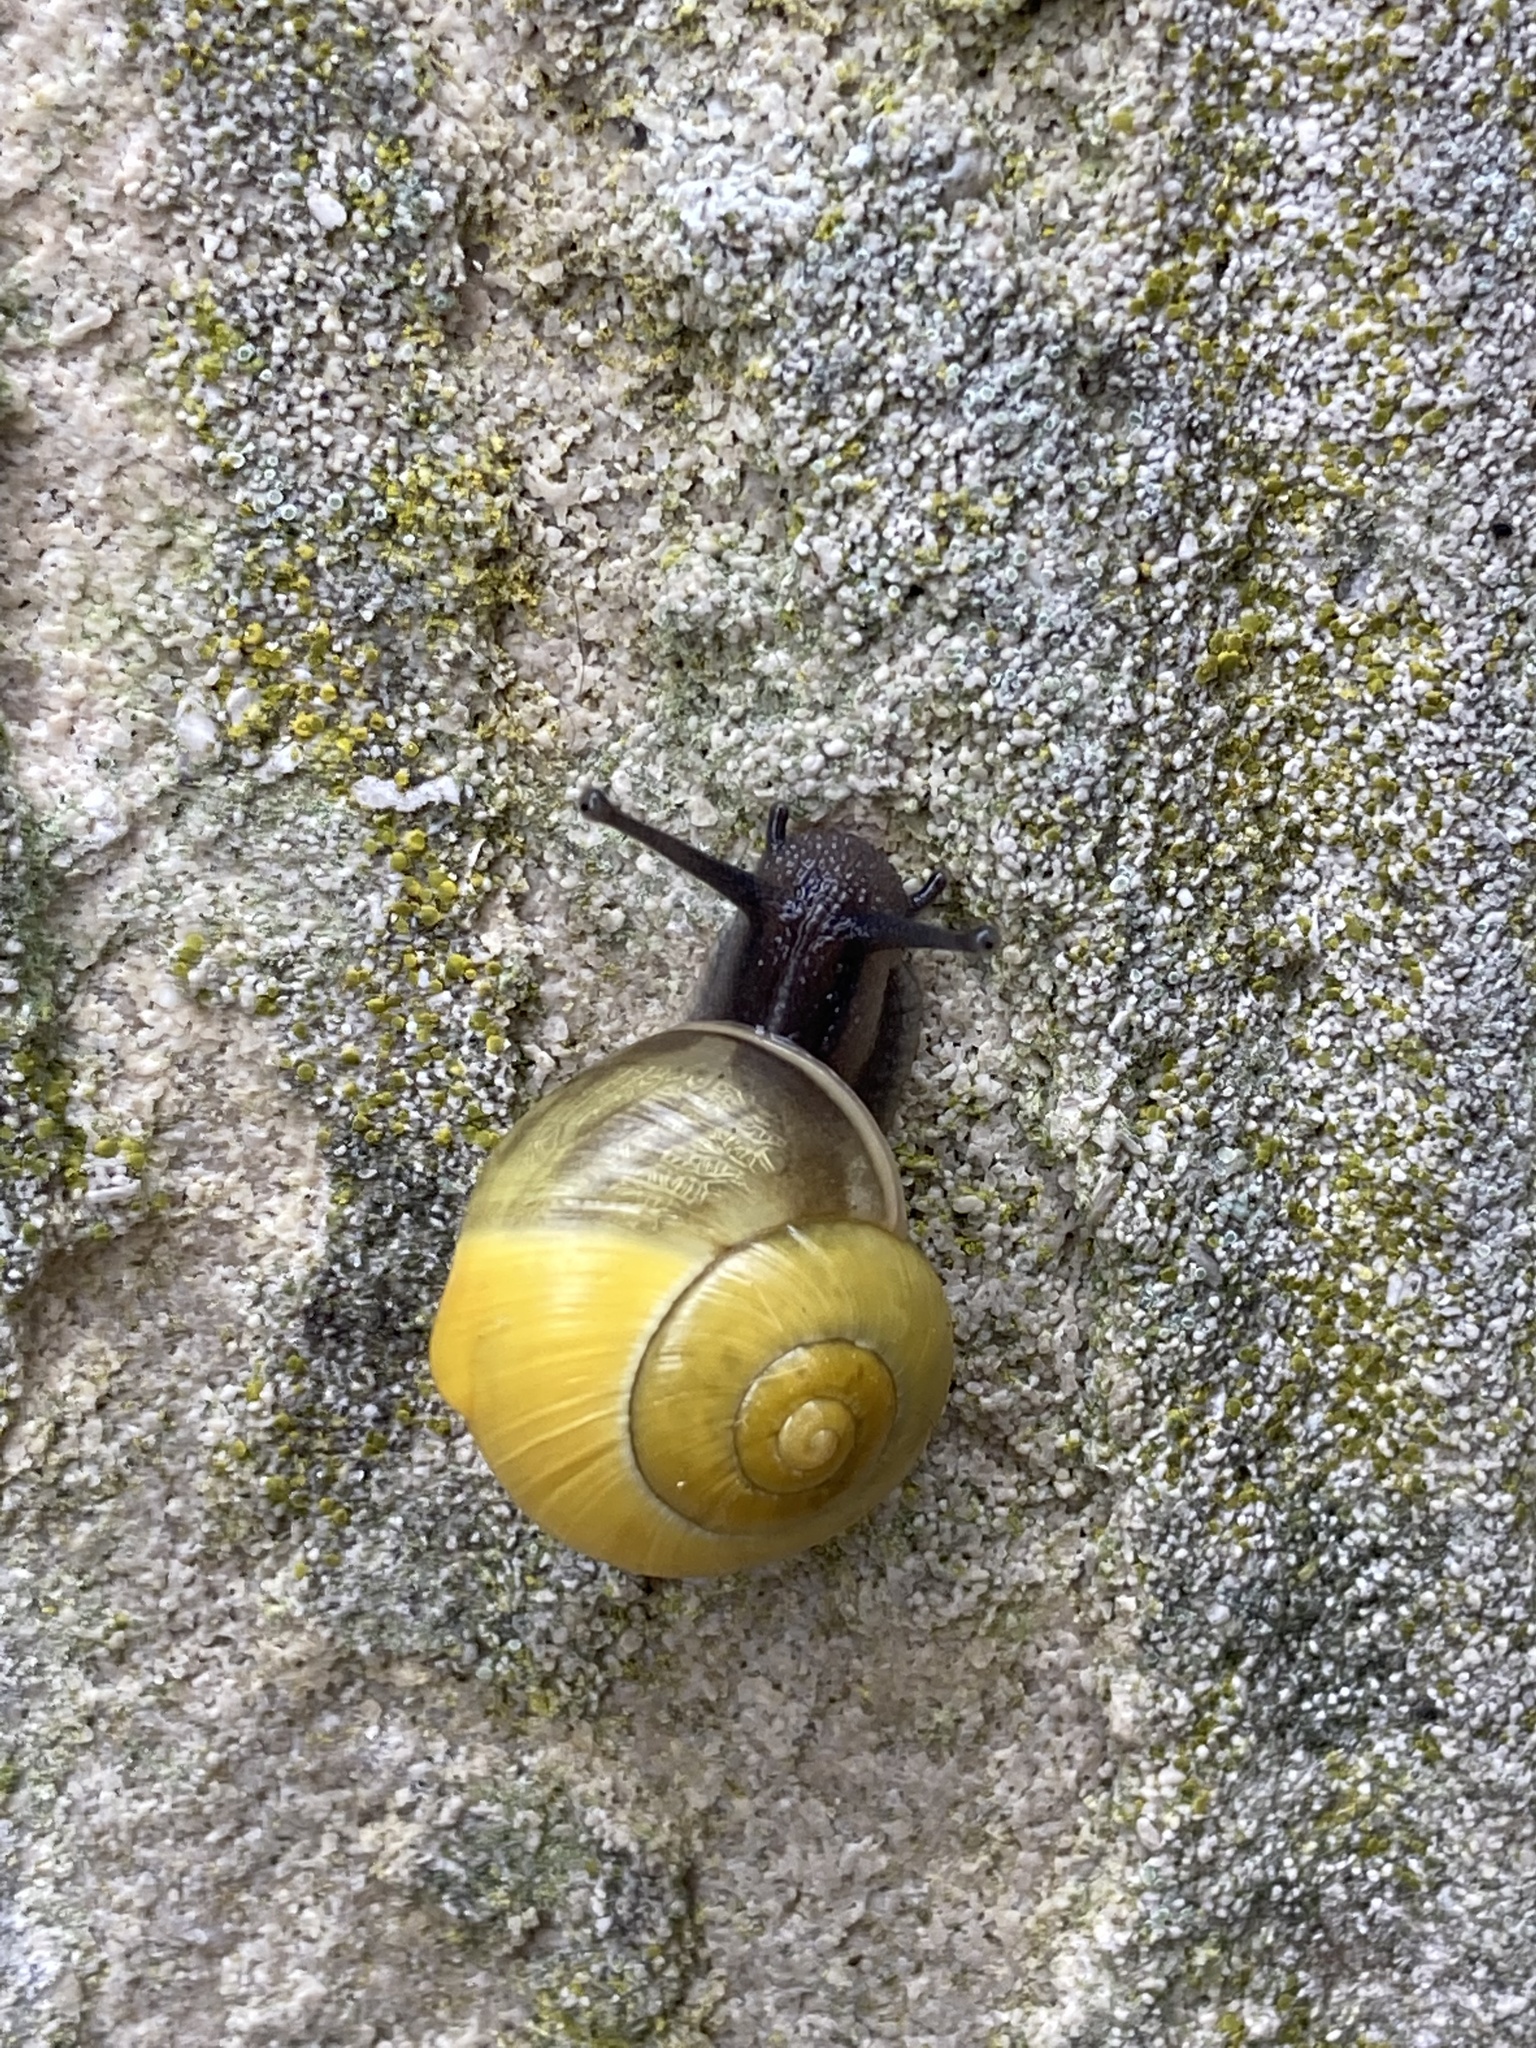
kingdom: Animalia
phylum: Mollusca
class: Gastropoda
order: Stylommatophora
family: Helicidae
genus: Cepaea
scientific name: Cepaea
